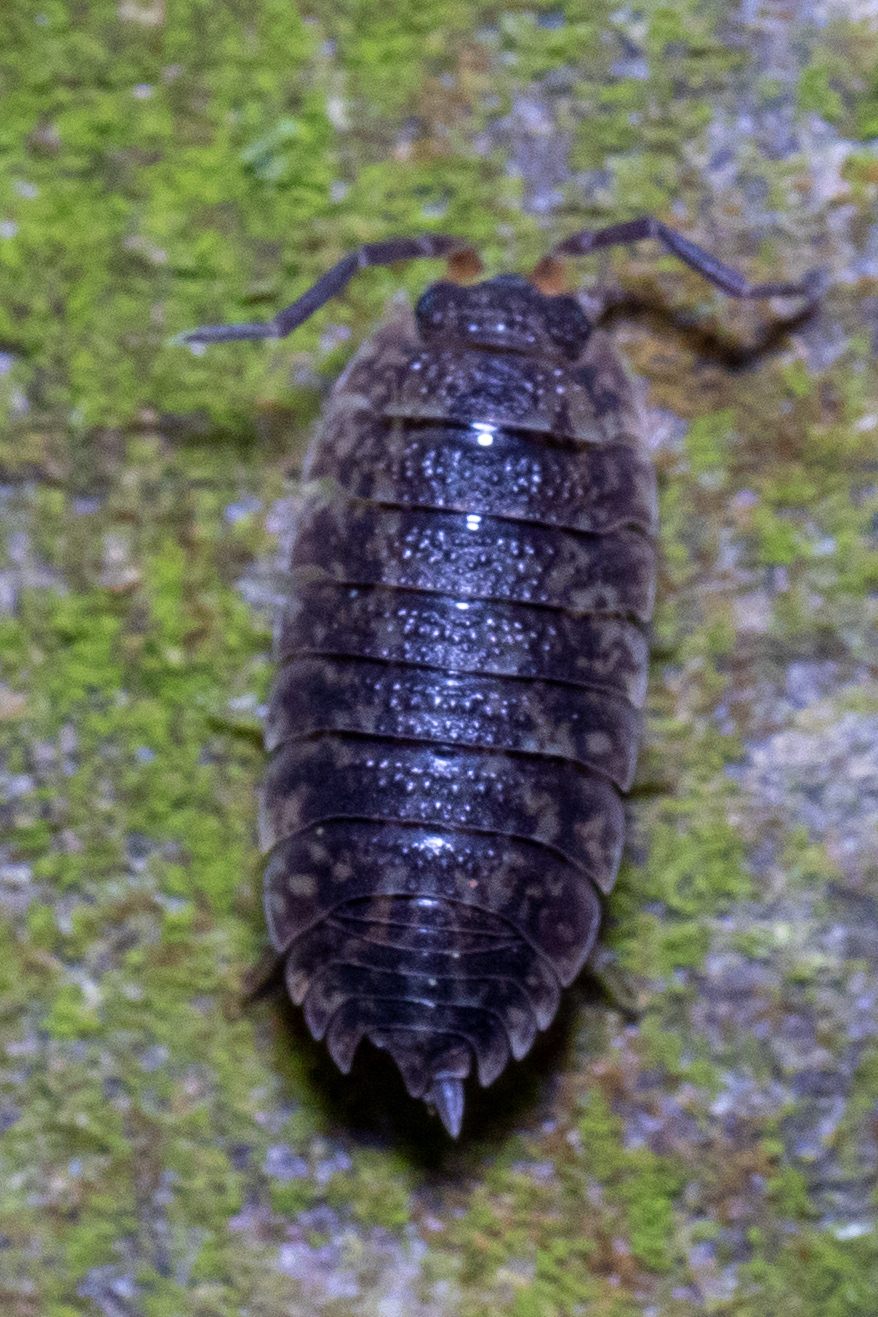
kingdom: Animalia
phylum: Arthropoda
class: Malacostraca
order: Isopoda
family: Porcellionidae
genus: Porcellio
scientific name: Porcellio scaber
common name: Common rough woodlouse
